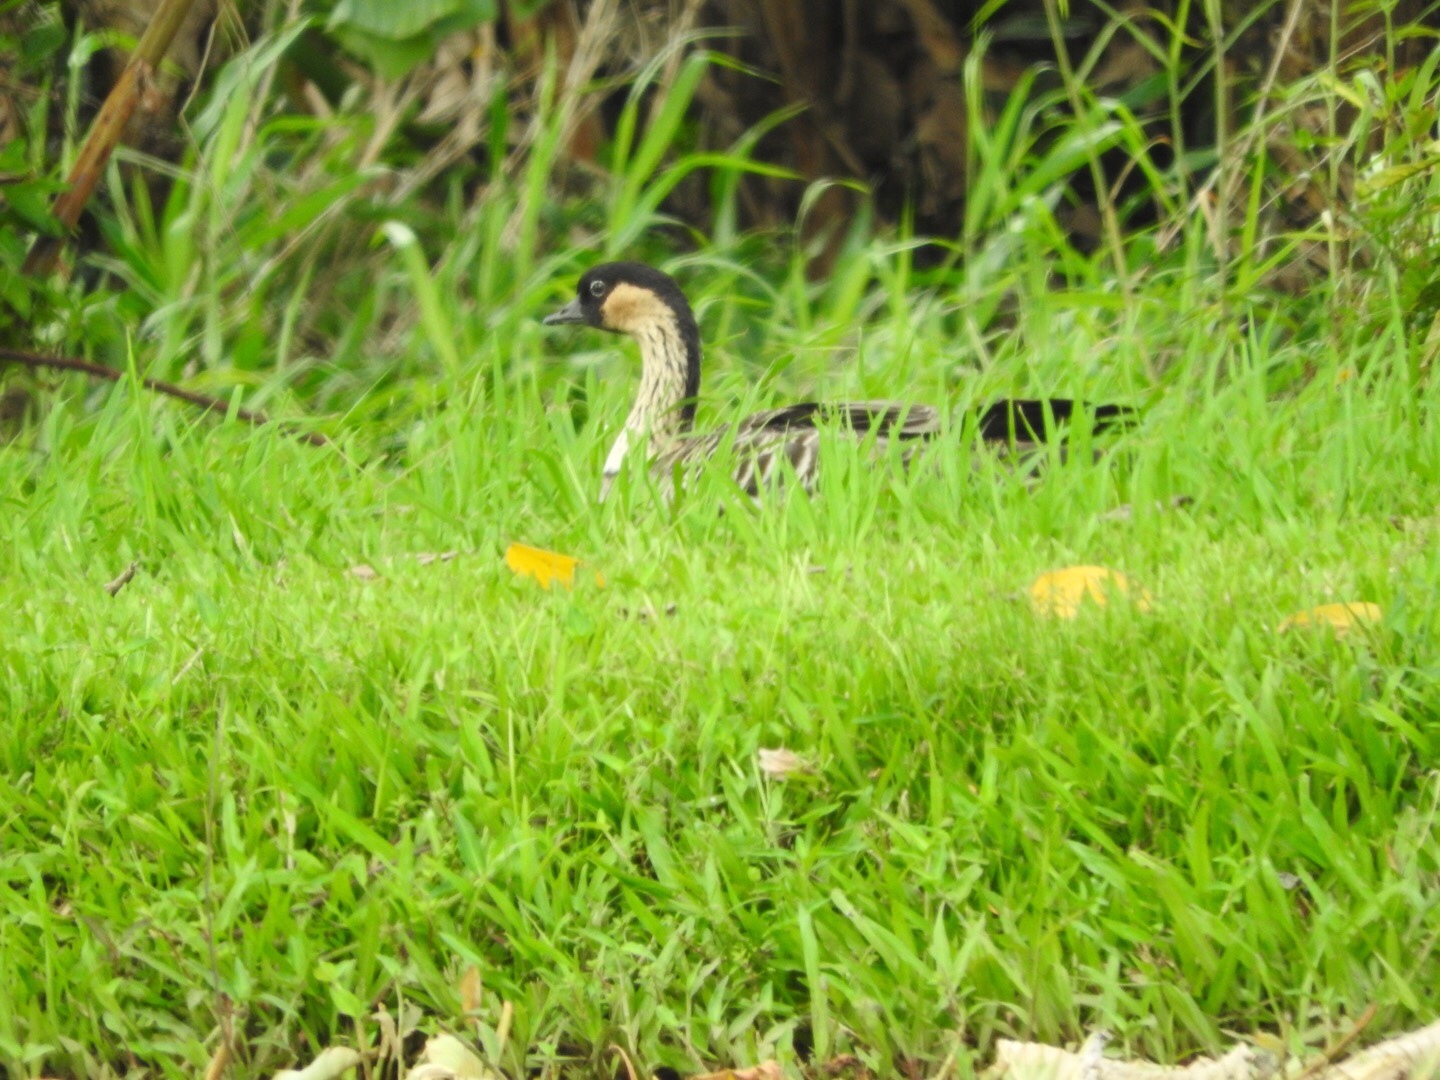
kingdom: Animalia
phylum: Chordata
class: Aves
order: Anseriformes
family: Anatidae
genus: Branta
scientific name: Branta sandvicensis
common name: Nene
